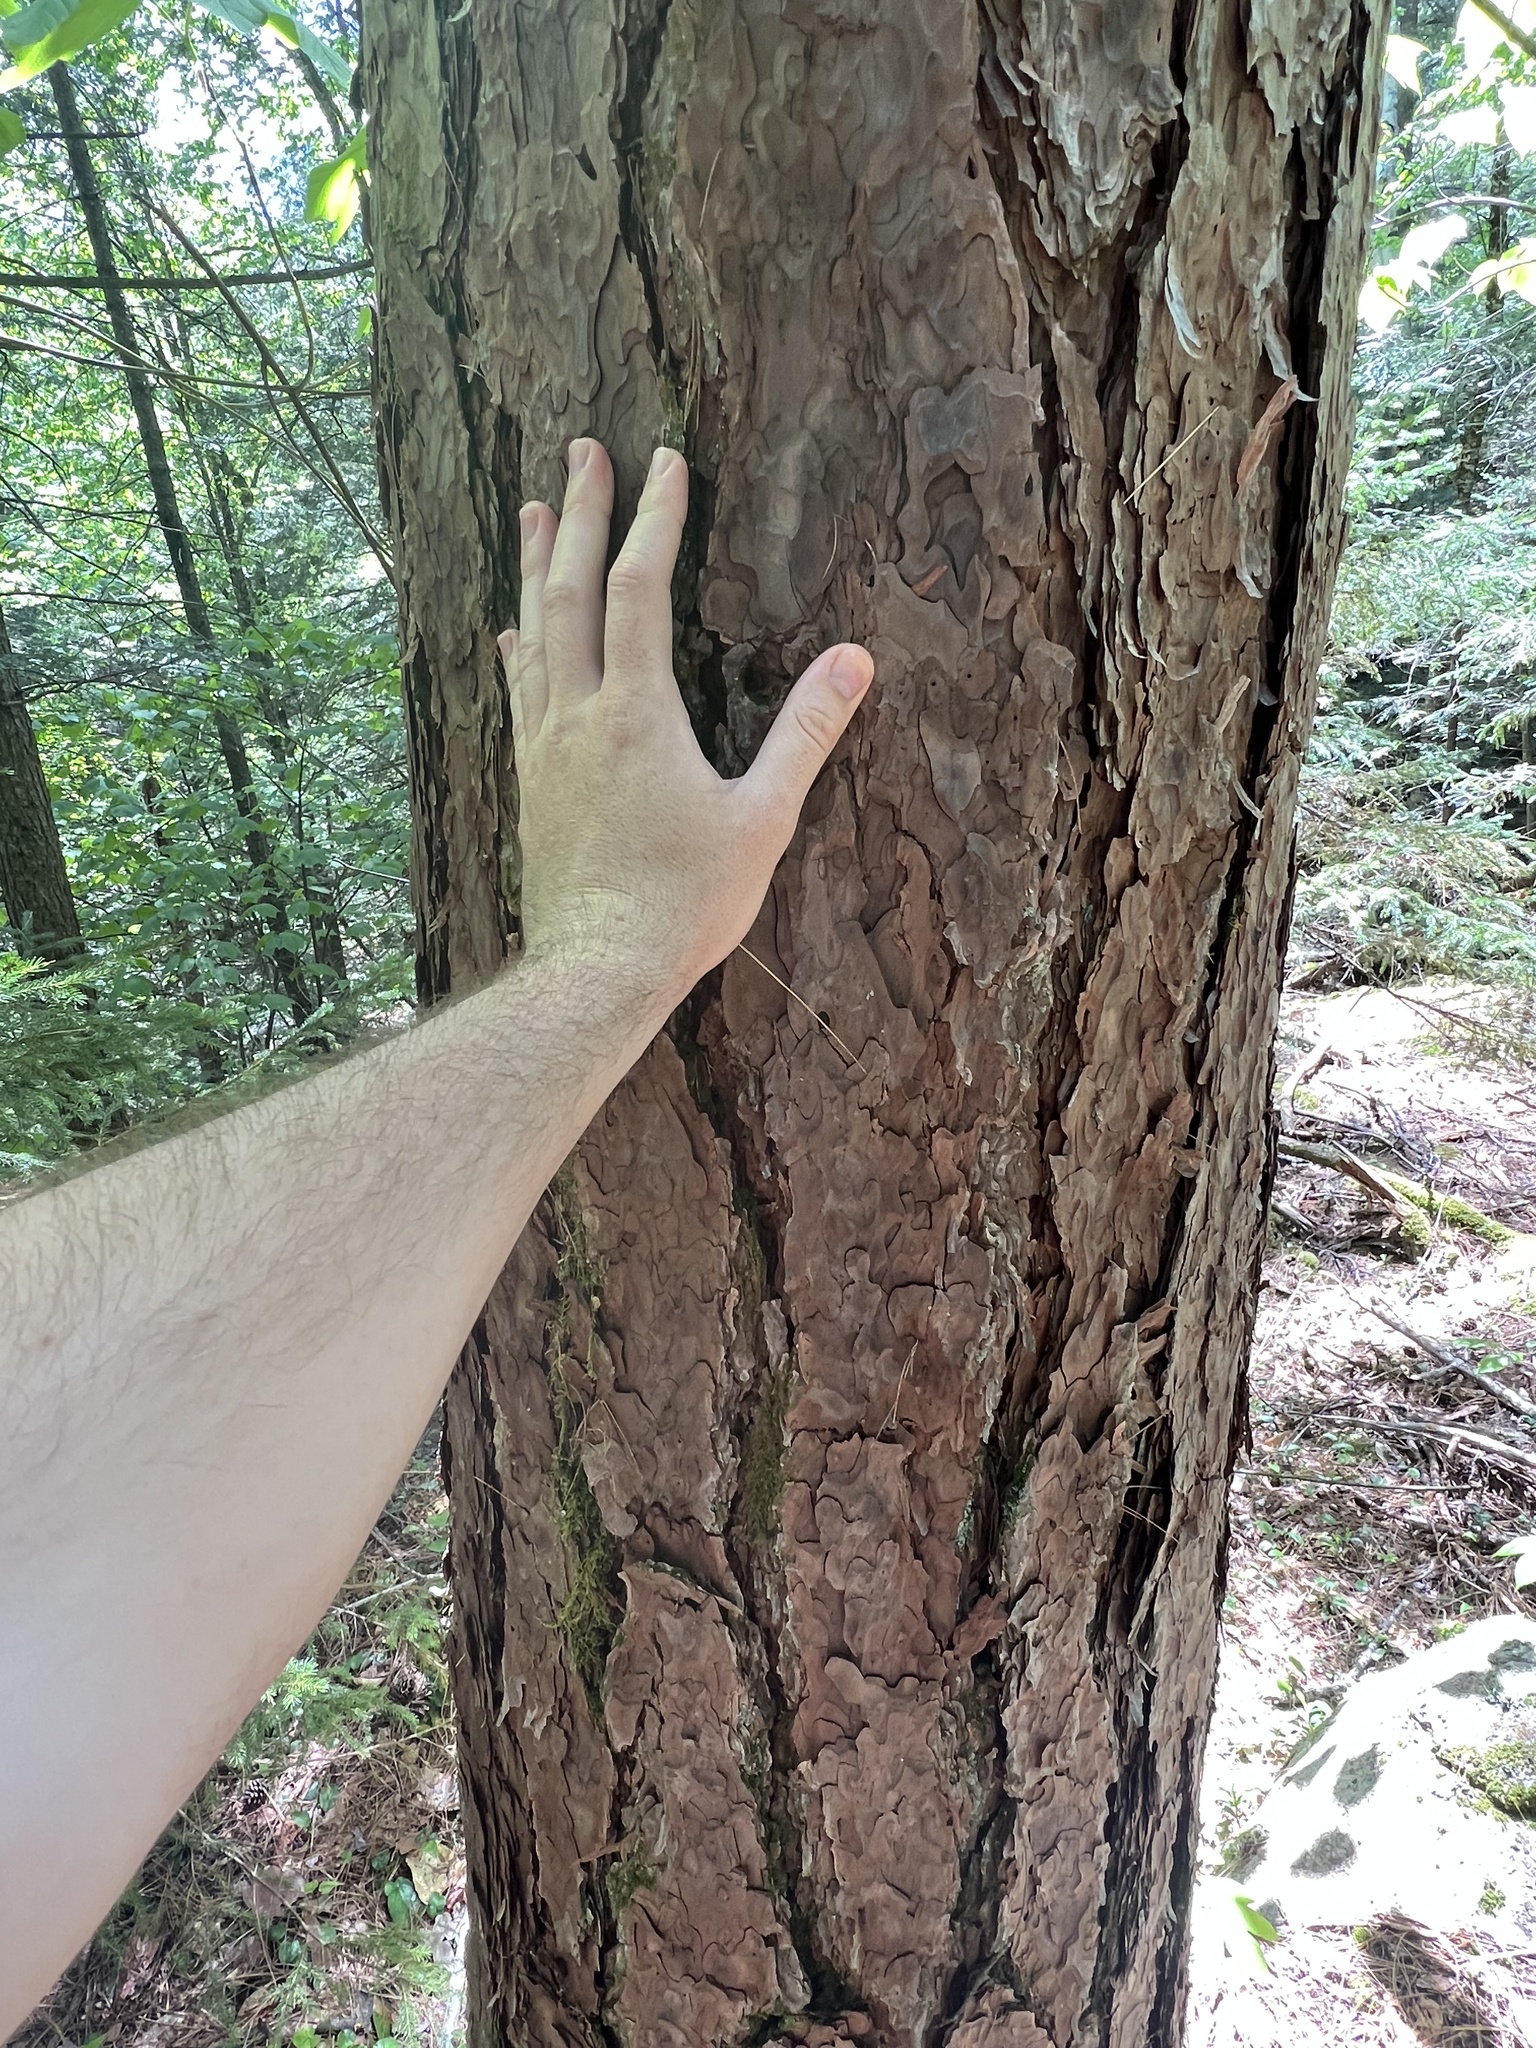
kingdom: Plantae
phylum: Tracheophyta
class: Pinopsida
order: Pinales
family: Pinaceae
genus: Pinus
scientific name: Pinus resinosa
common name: Norway pine
